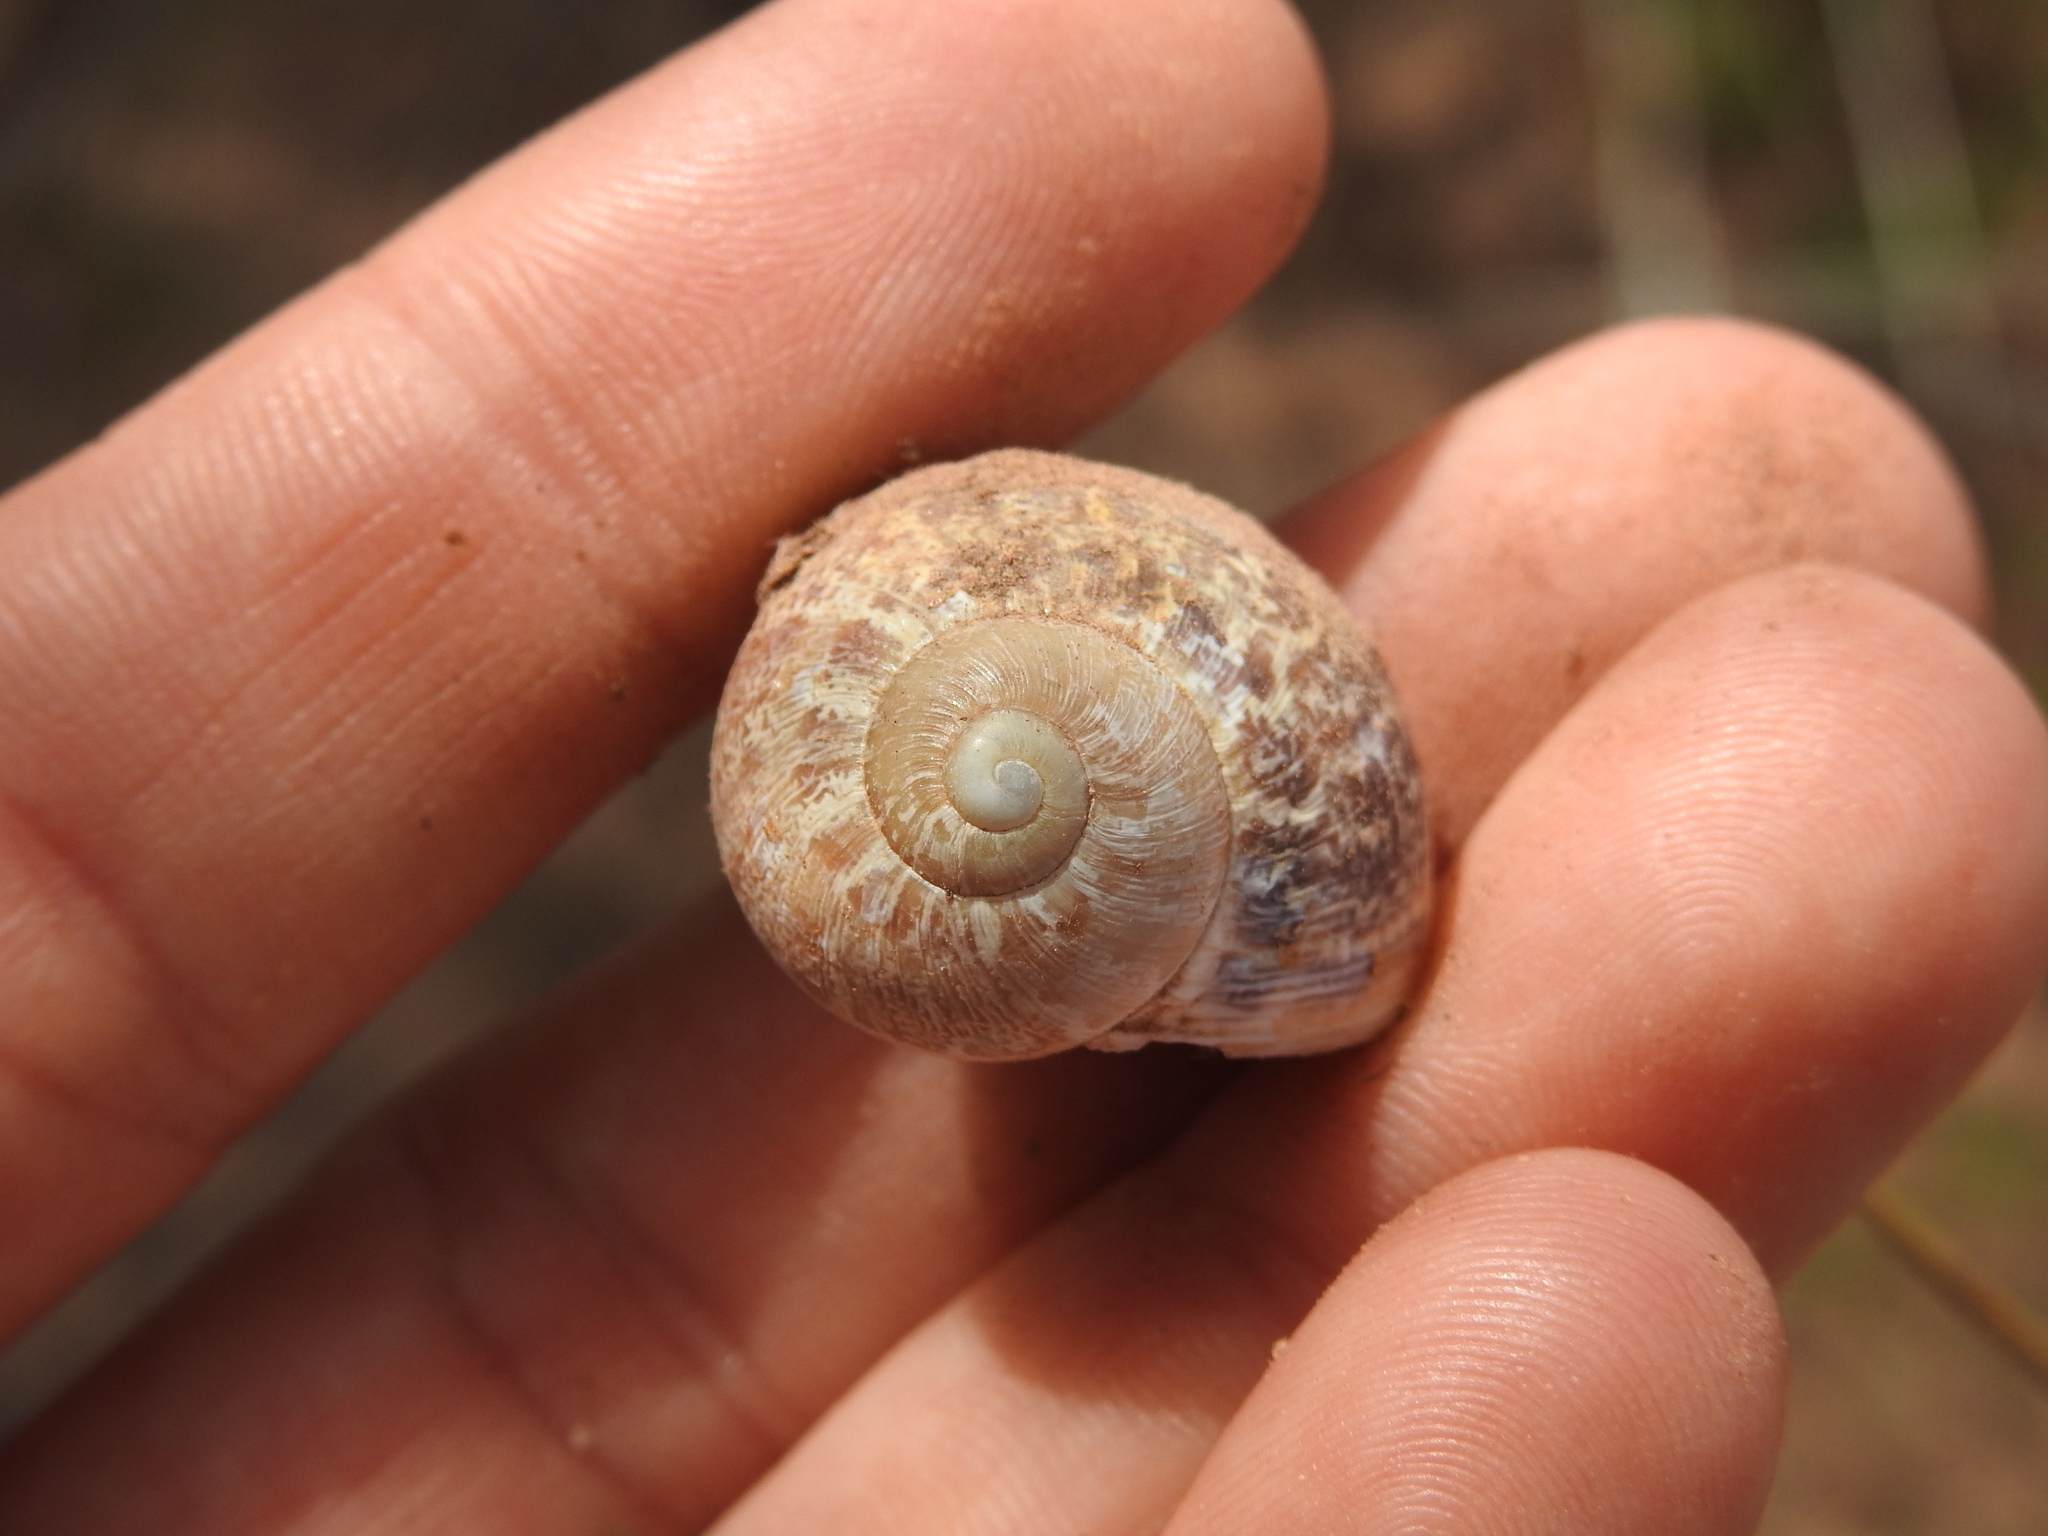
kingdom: Animalia
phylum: Mollusca
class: Gastropoda
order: Stylommatophora
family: Helicidae
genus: Cornu
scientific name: Cornu aspersum
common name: Brown garden snail
